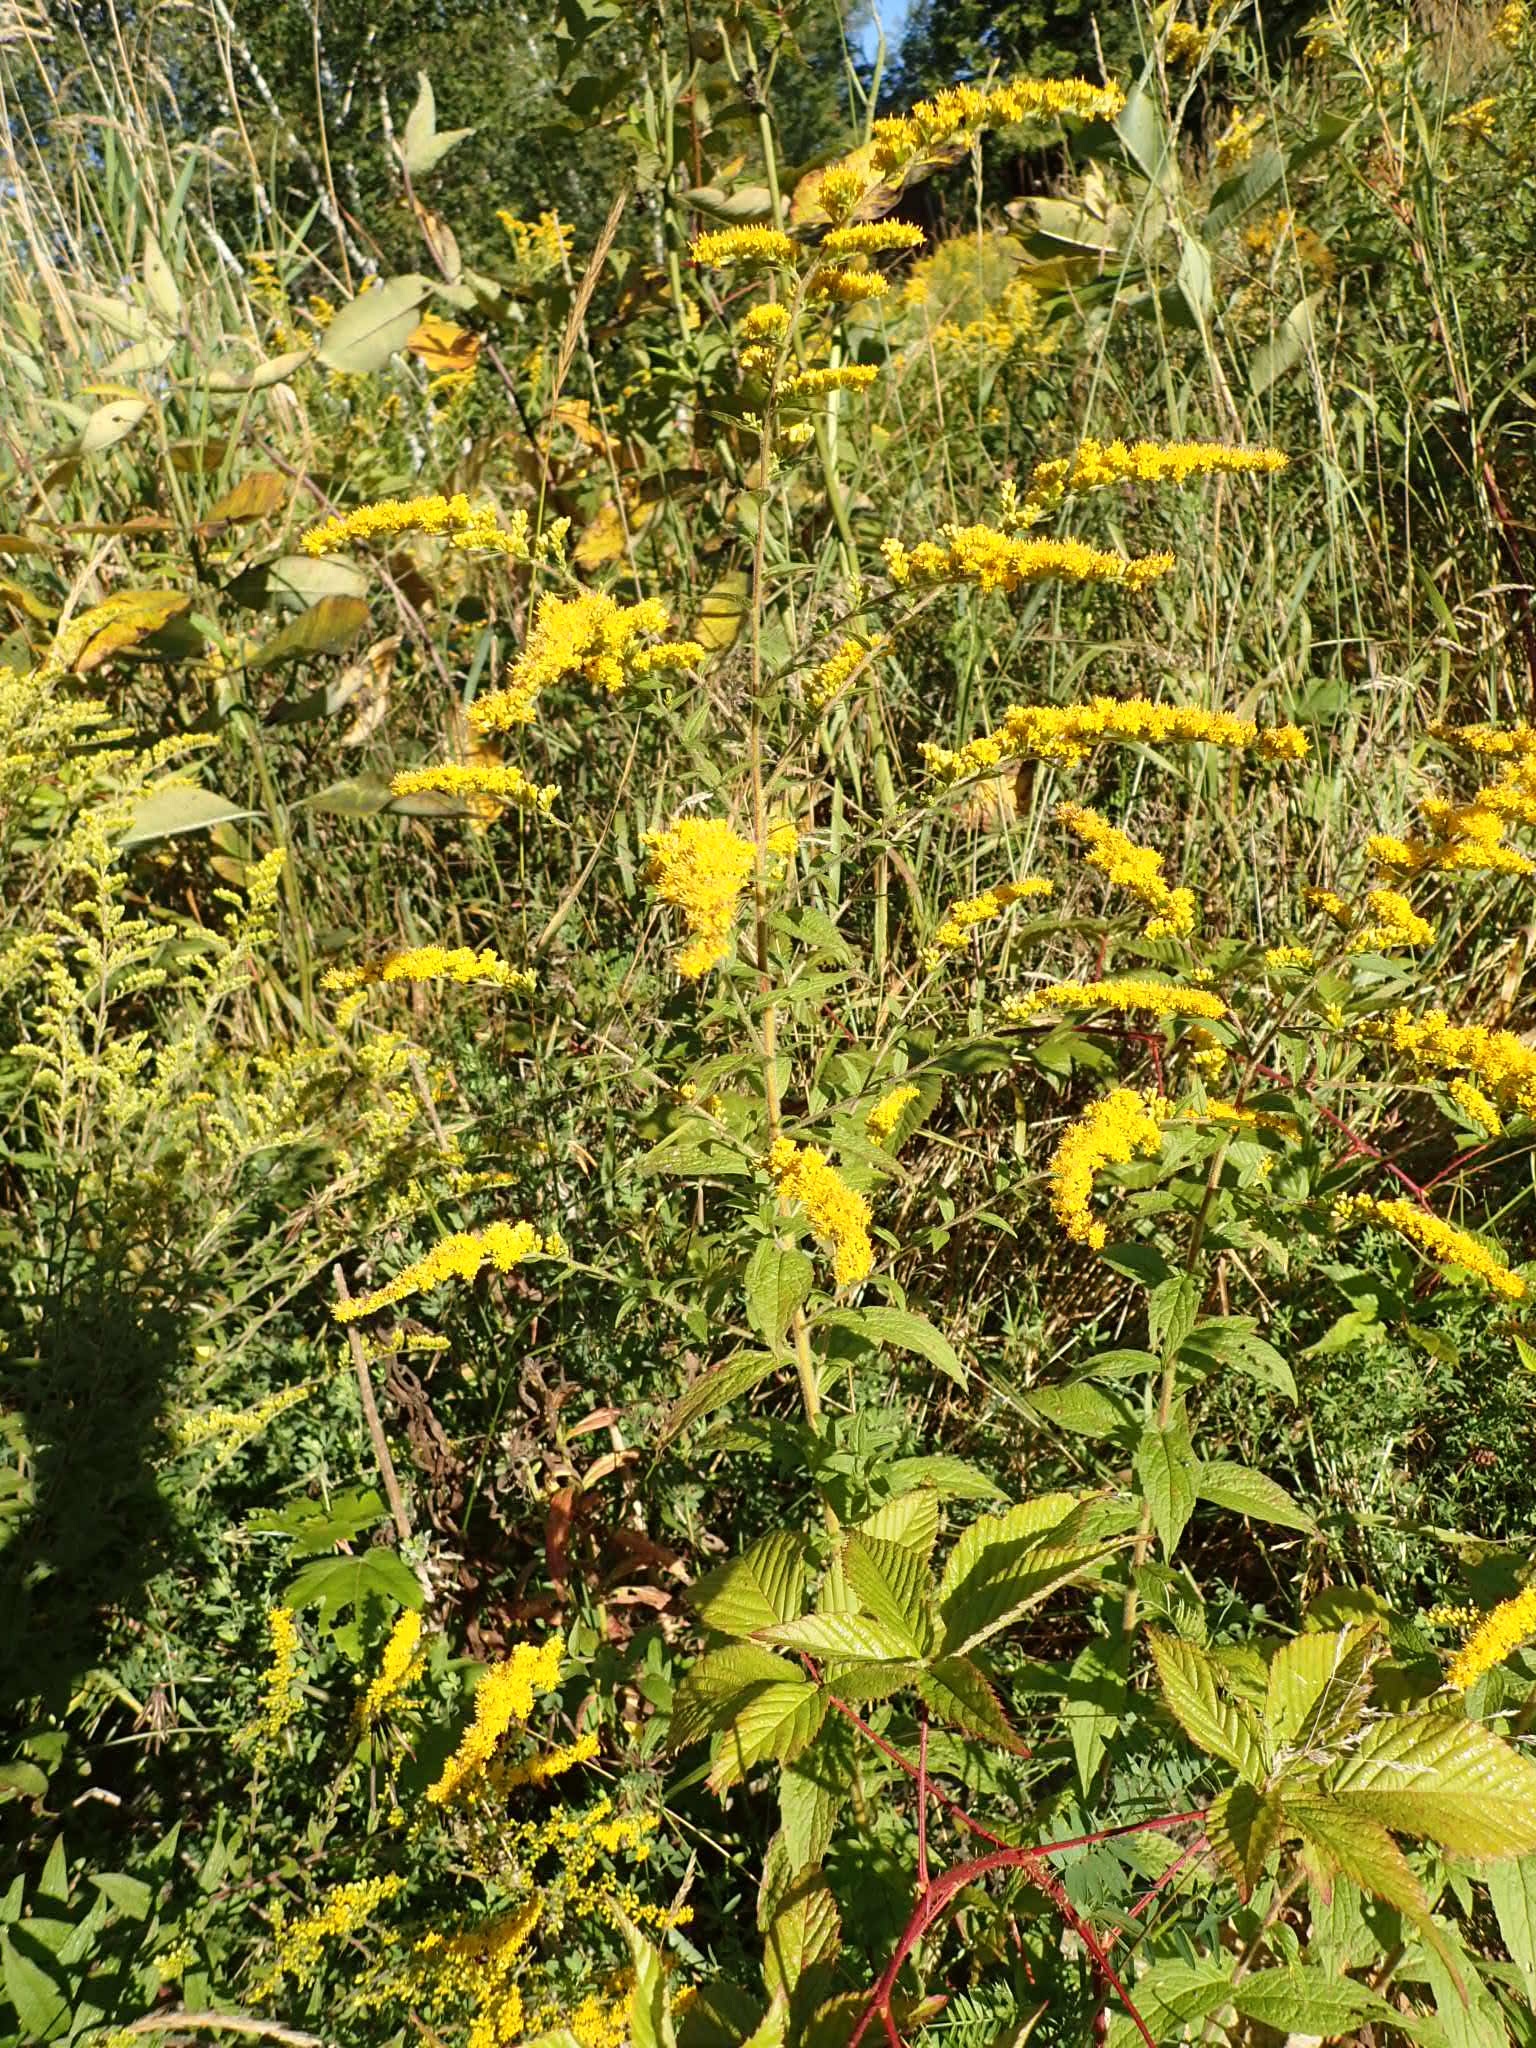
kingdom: Plantae
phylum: Tracheophyta
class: Magnoliopsida
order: Asterales
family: Asteraceae
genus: Solidago
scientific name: Solidago rugosa
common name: Rough-stemmed goldenrod
